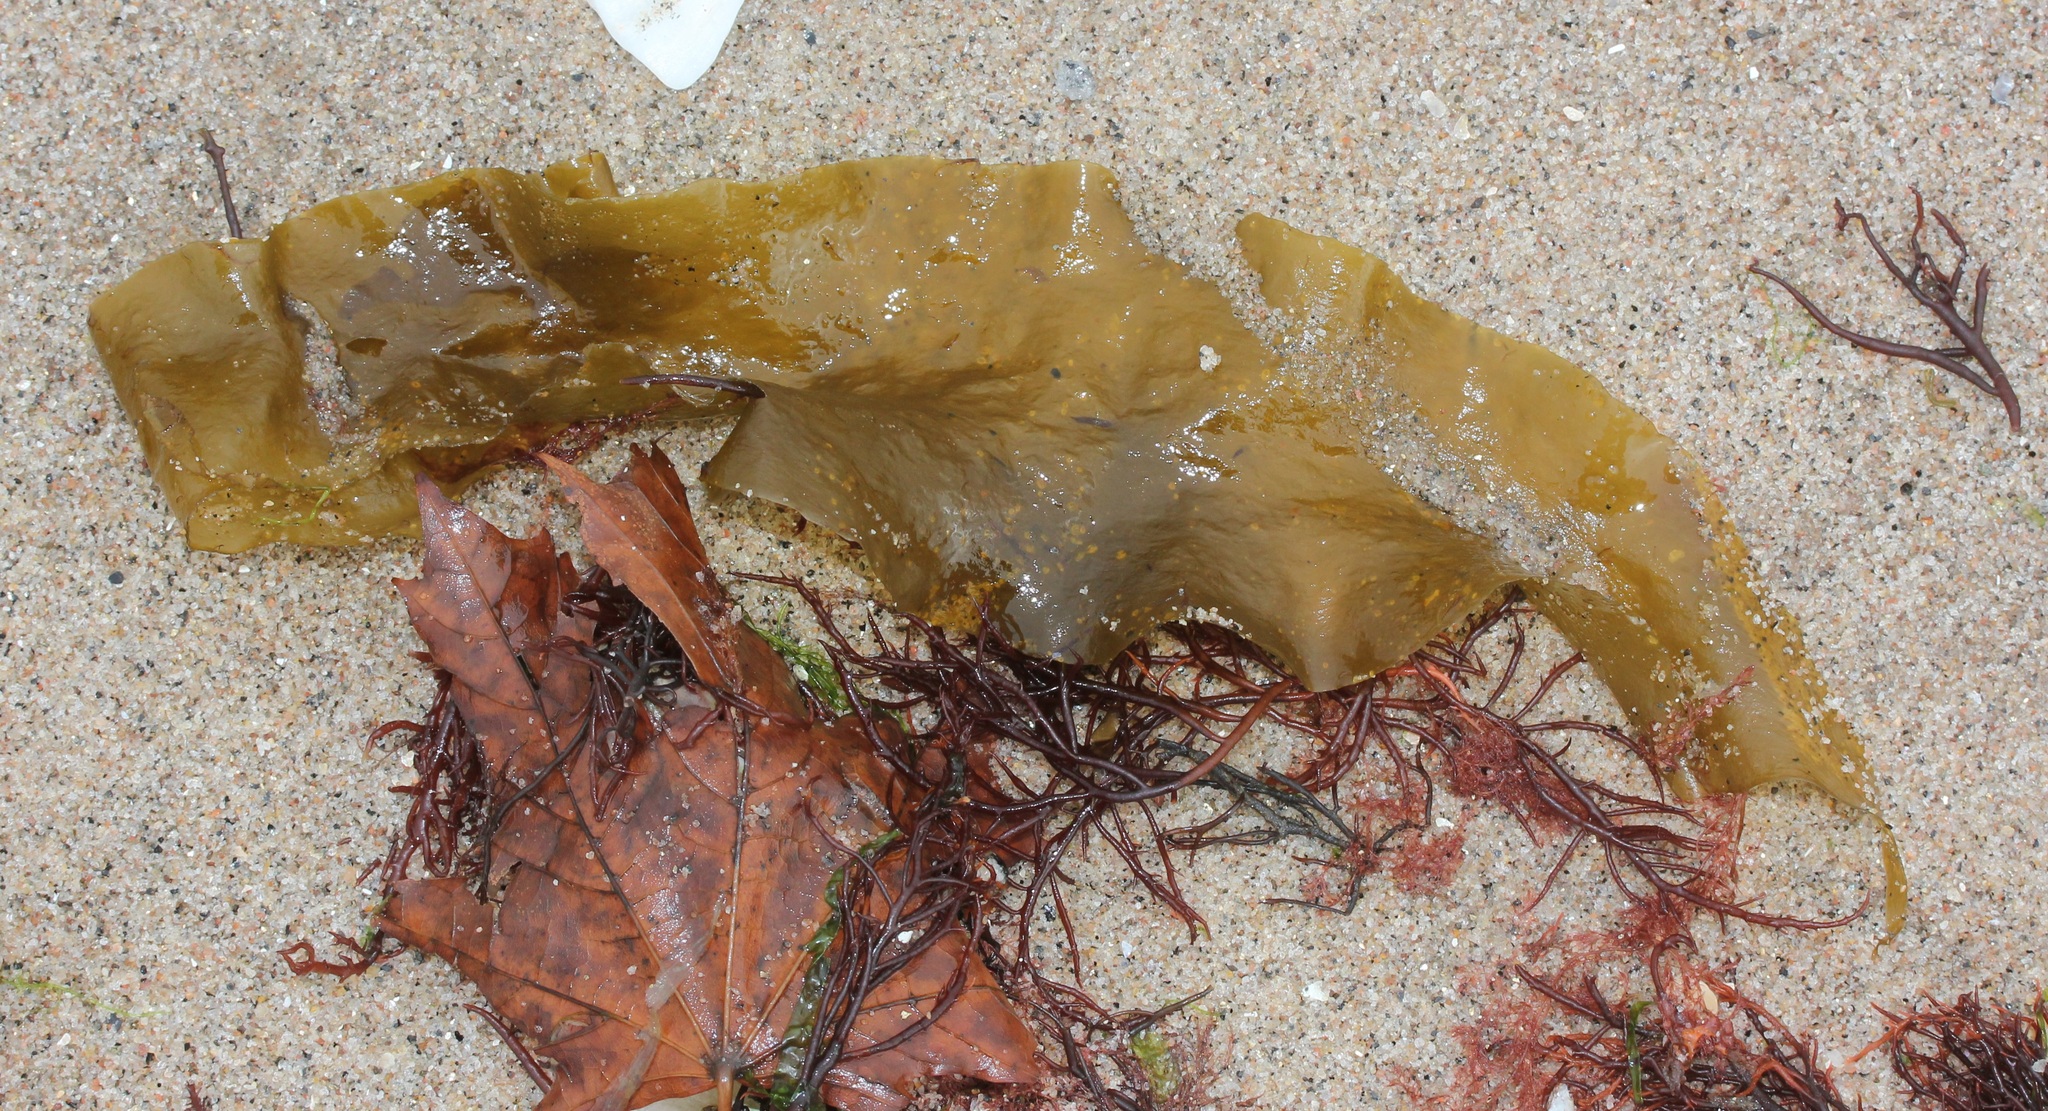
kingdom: Chromista
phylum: Ochrophyta
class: Phaeophyceae
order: Laminariales
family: Laminariaceae
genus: Saccharina
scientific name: Saccharina latissima
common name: Poor man's weather glass
